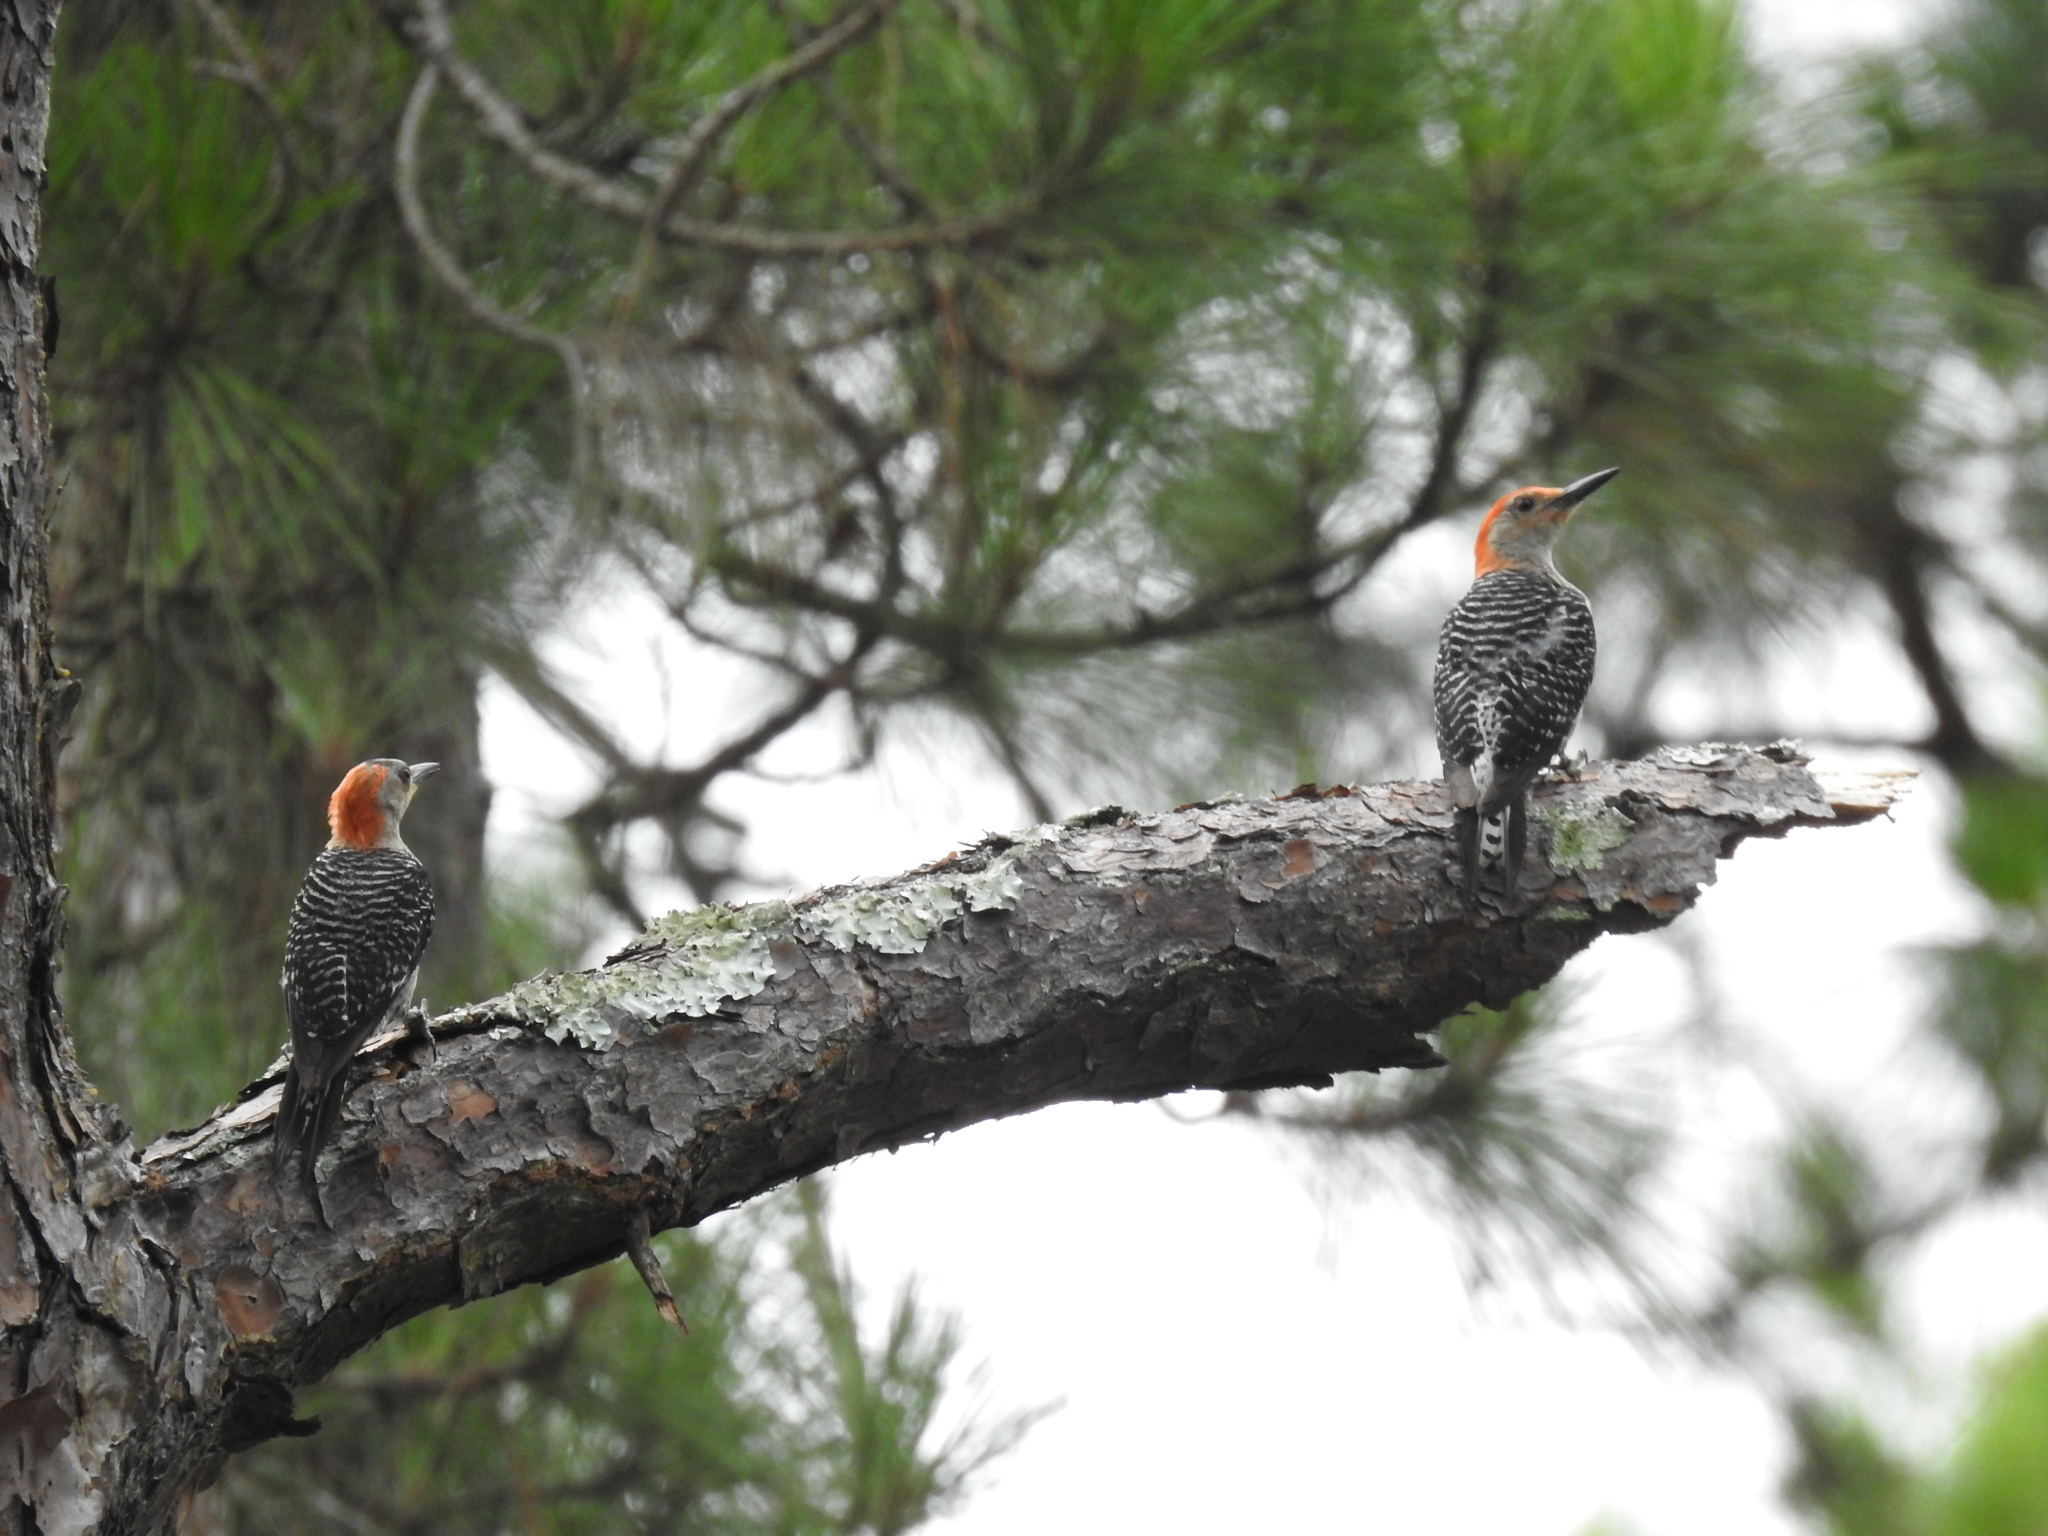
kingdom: Animalia
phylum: Chordata
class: Aves
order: Piciformes
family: Picidae
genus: Melanerpes
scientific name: Melanerpes carolinus
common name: Red-bellied woodpecker
